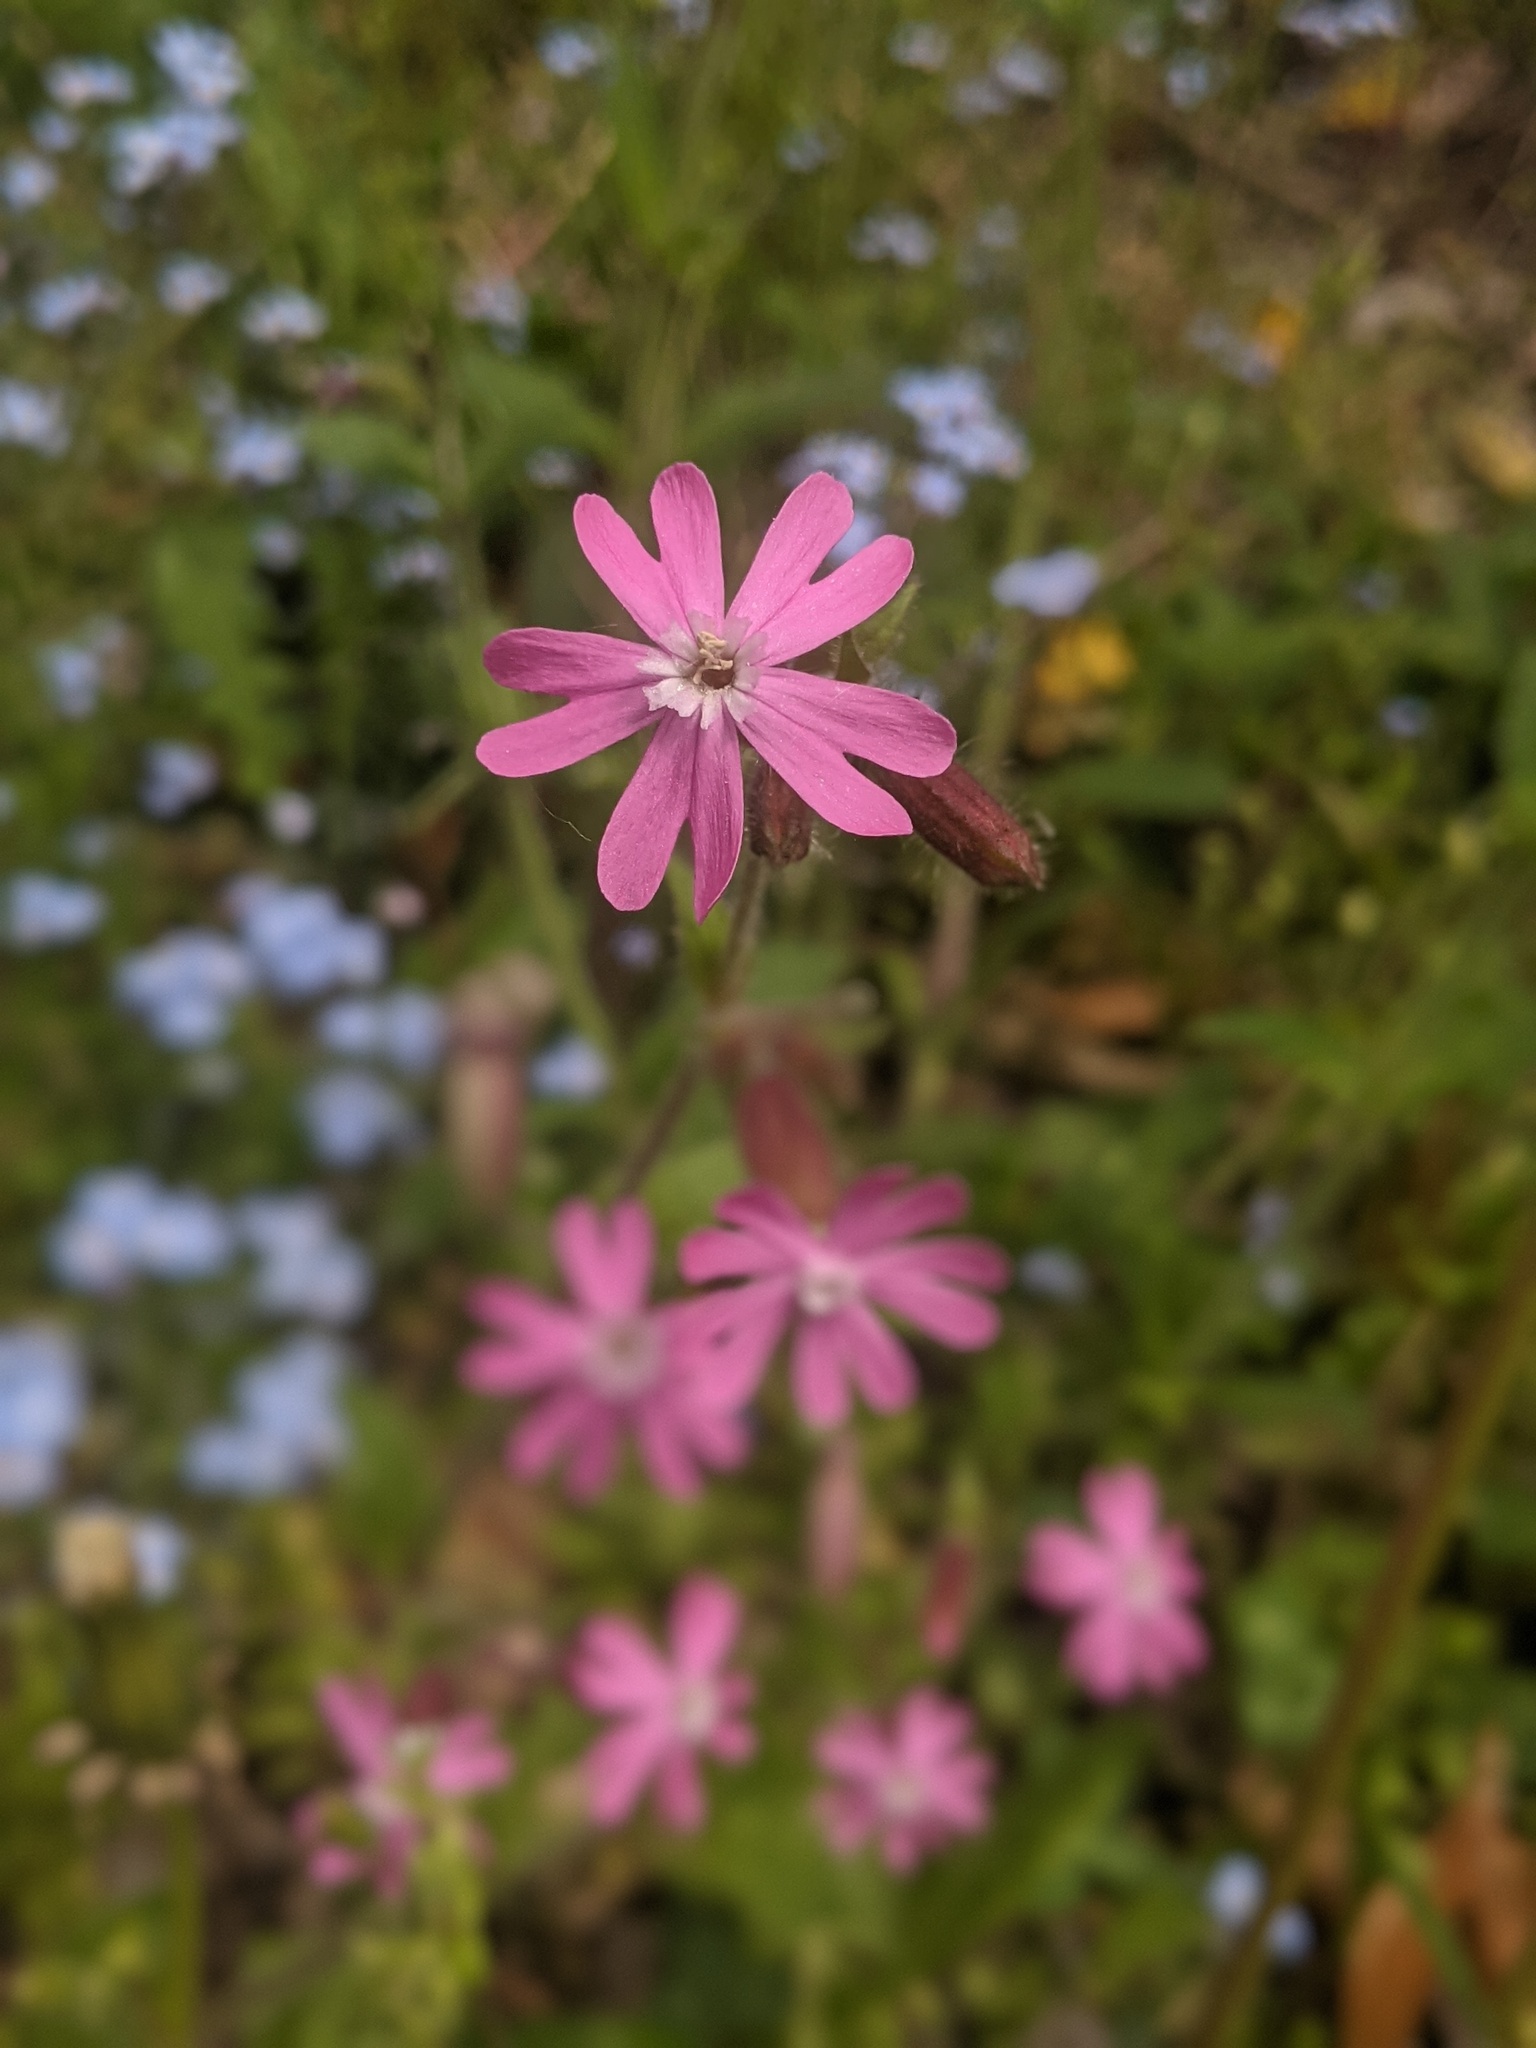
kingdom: Plantae
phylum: Tracheophyta
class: Magnoliopsida
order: Caryophyllales
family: Caryophyllaceae
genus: Silene
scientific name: Silene dioica
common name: Red campion
